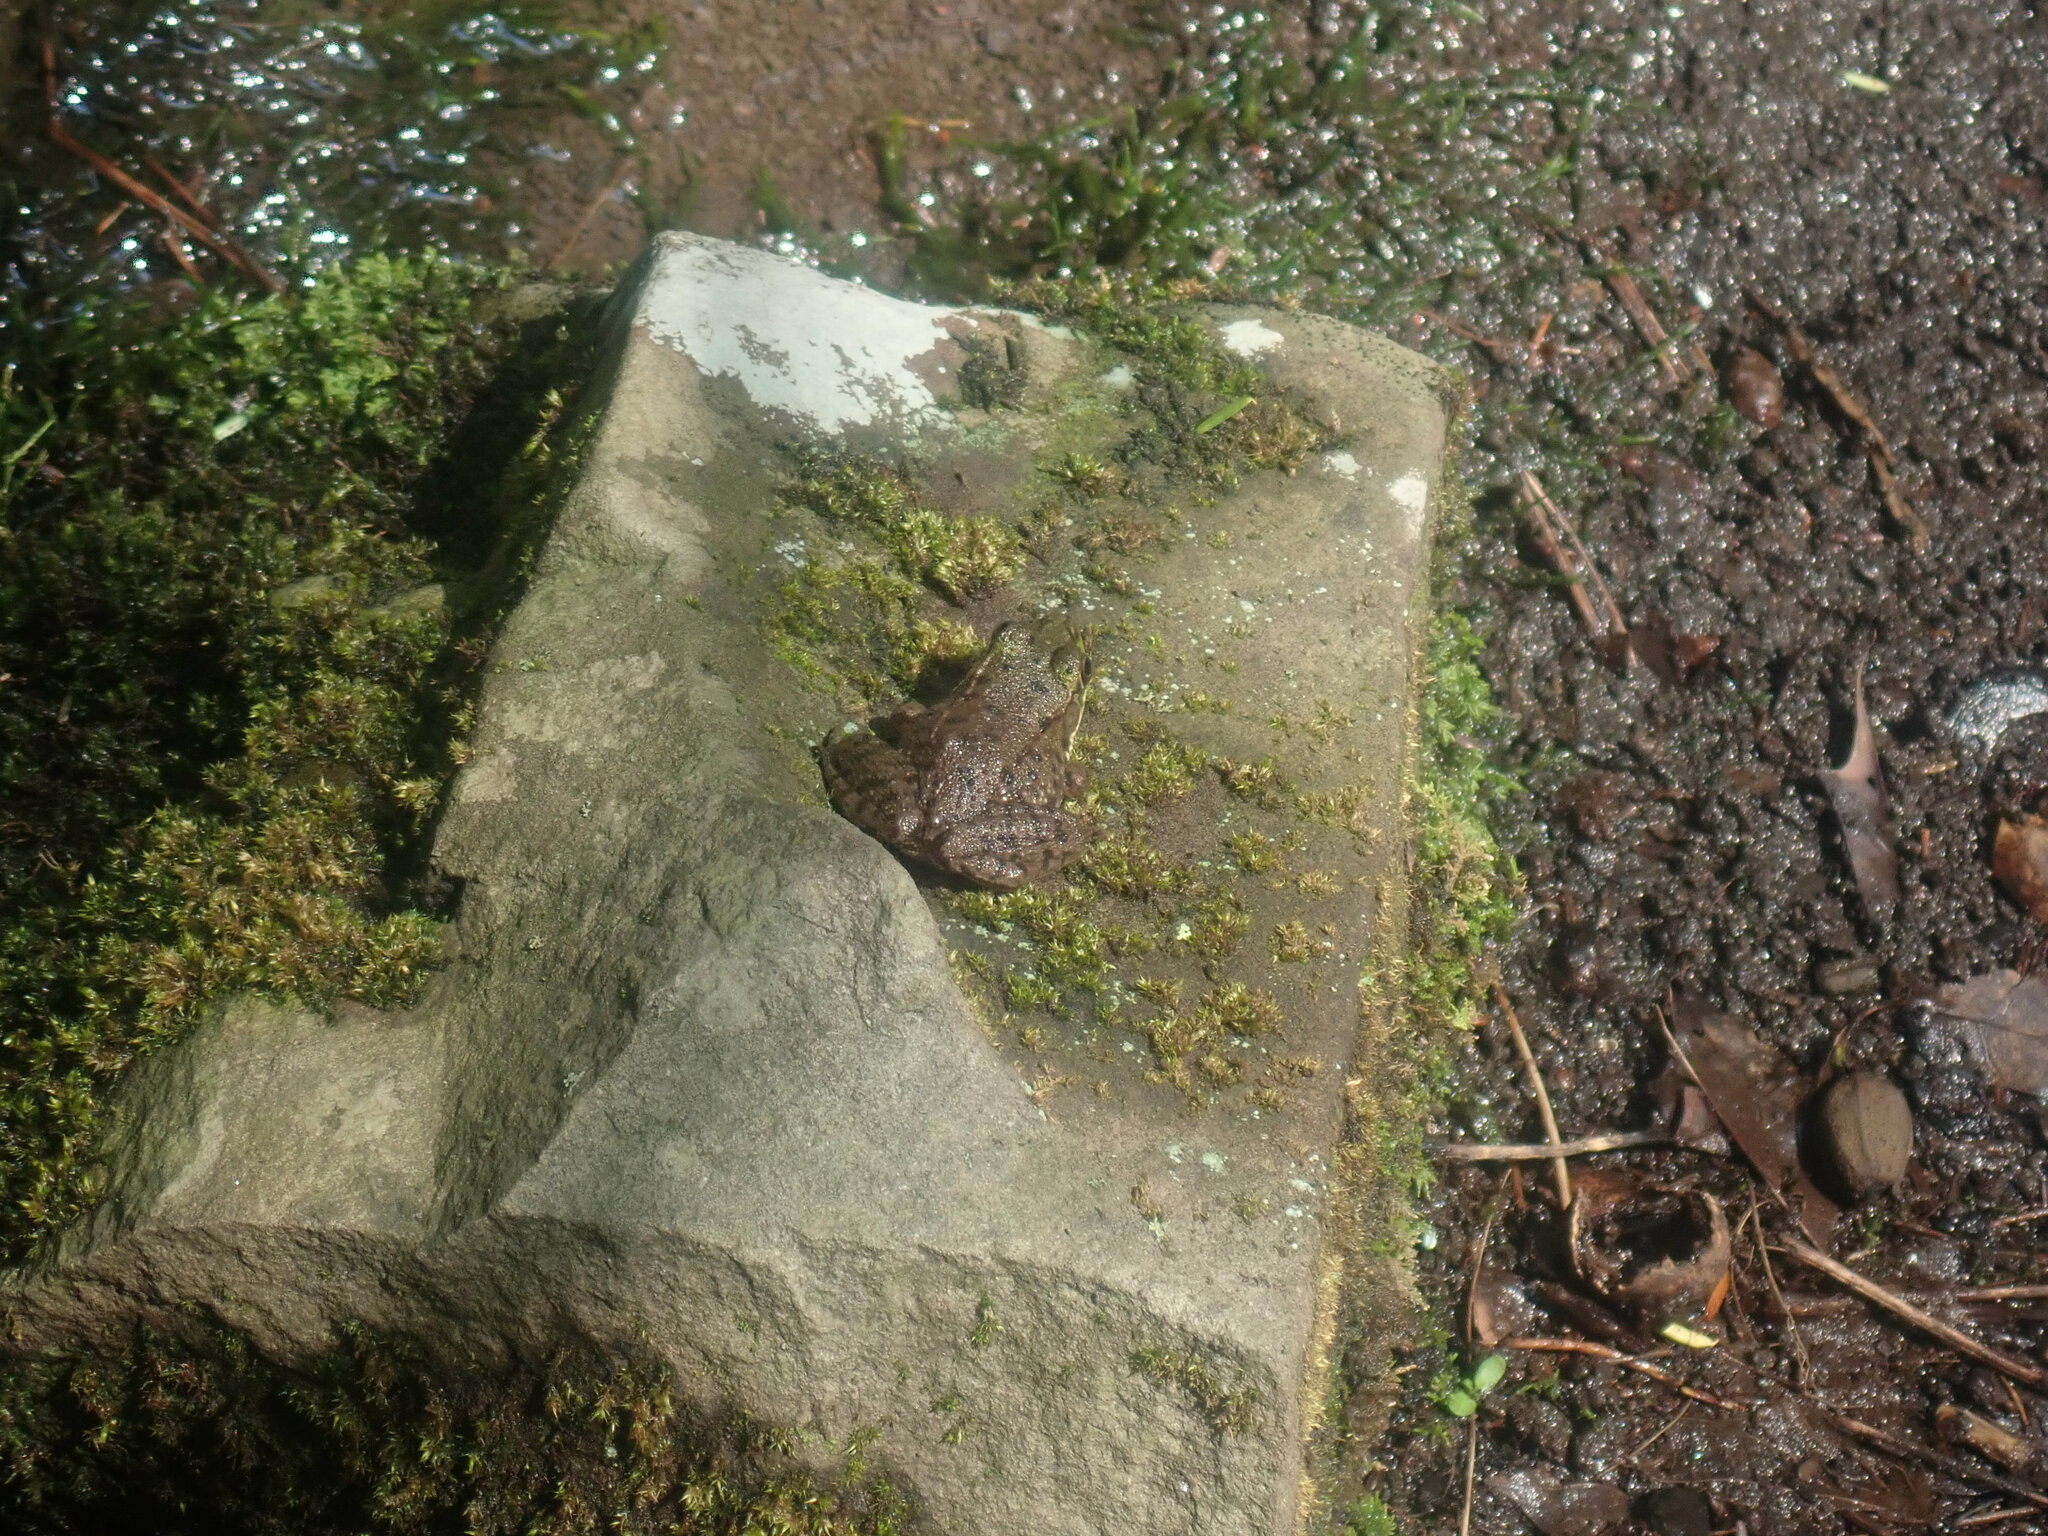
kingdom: Animalia
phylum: Chordata
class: Amphibia
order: Anura
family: Ranidae
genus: Lithobates
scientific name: Lithobates clamitans
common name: Green frog
